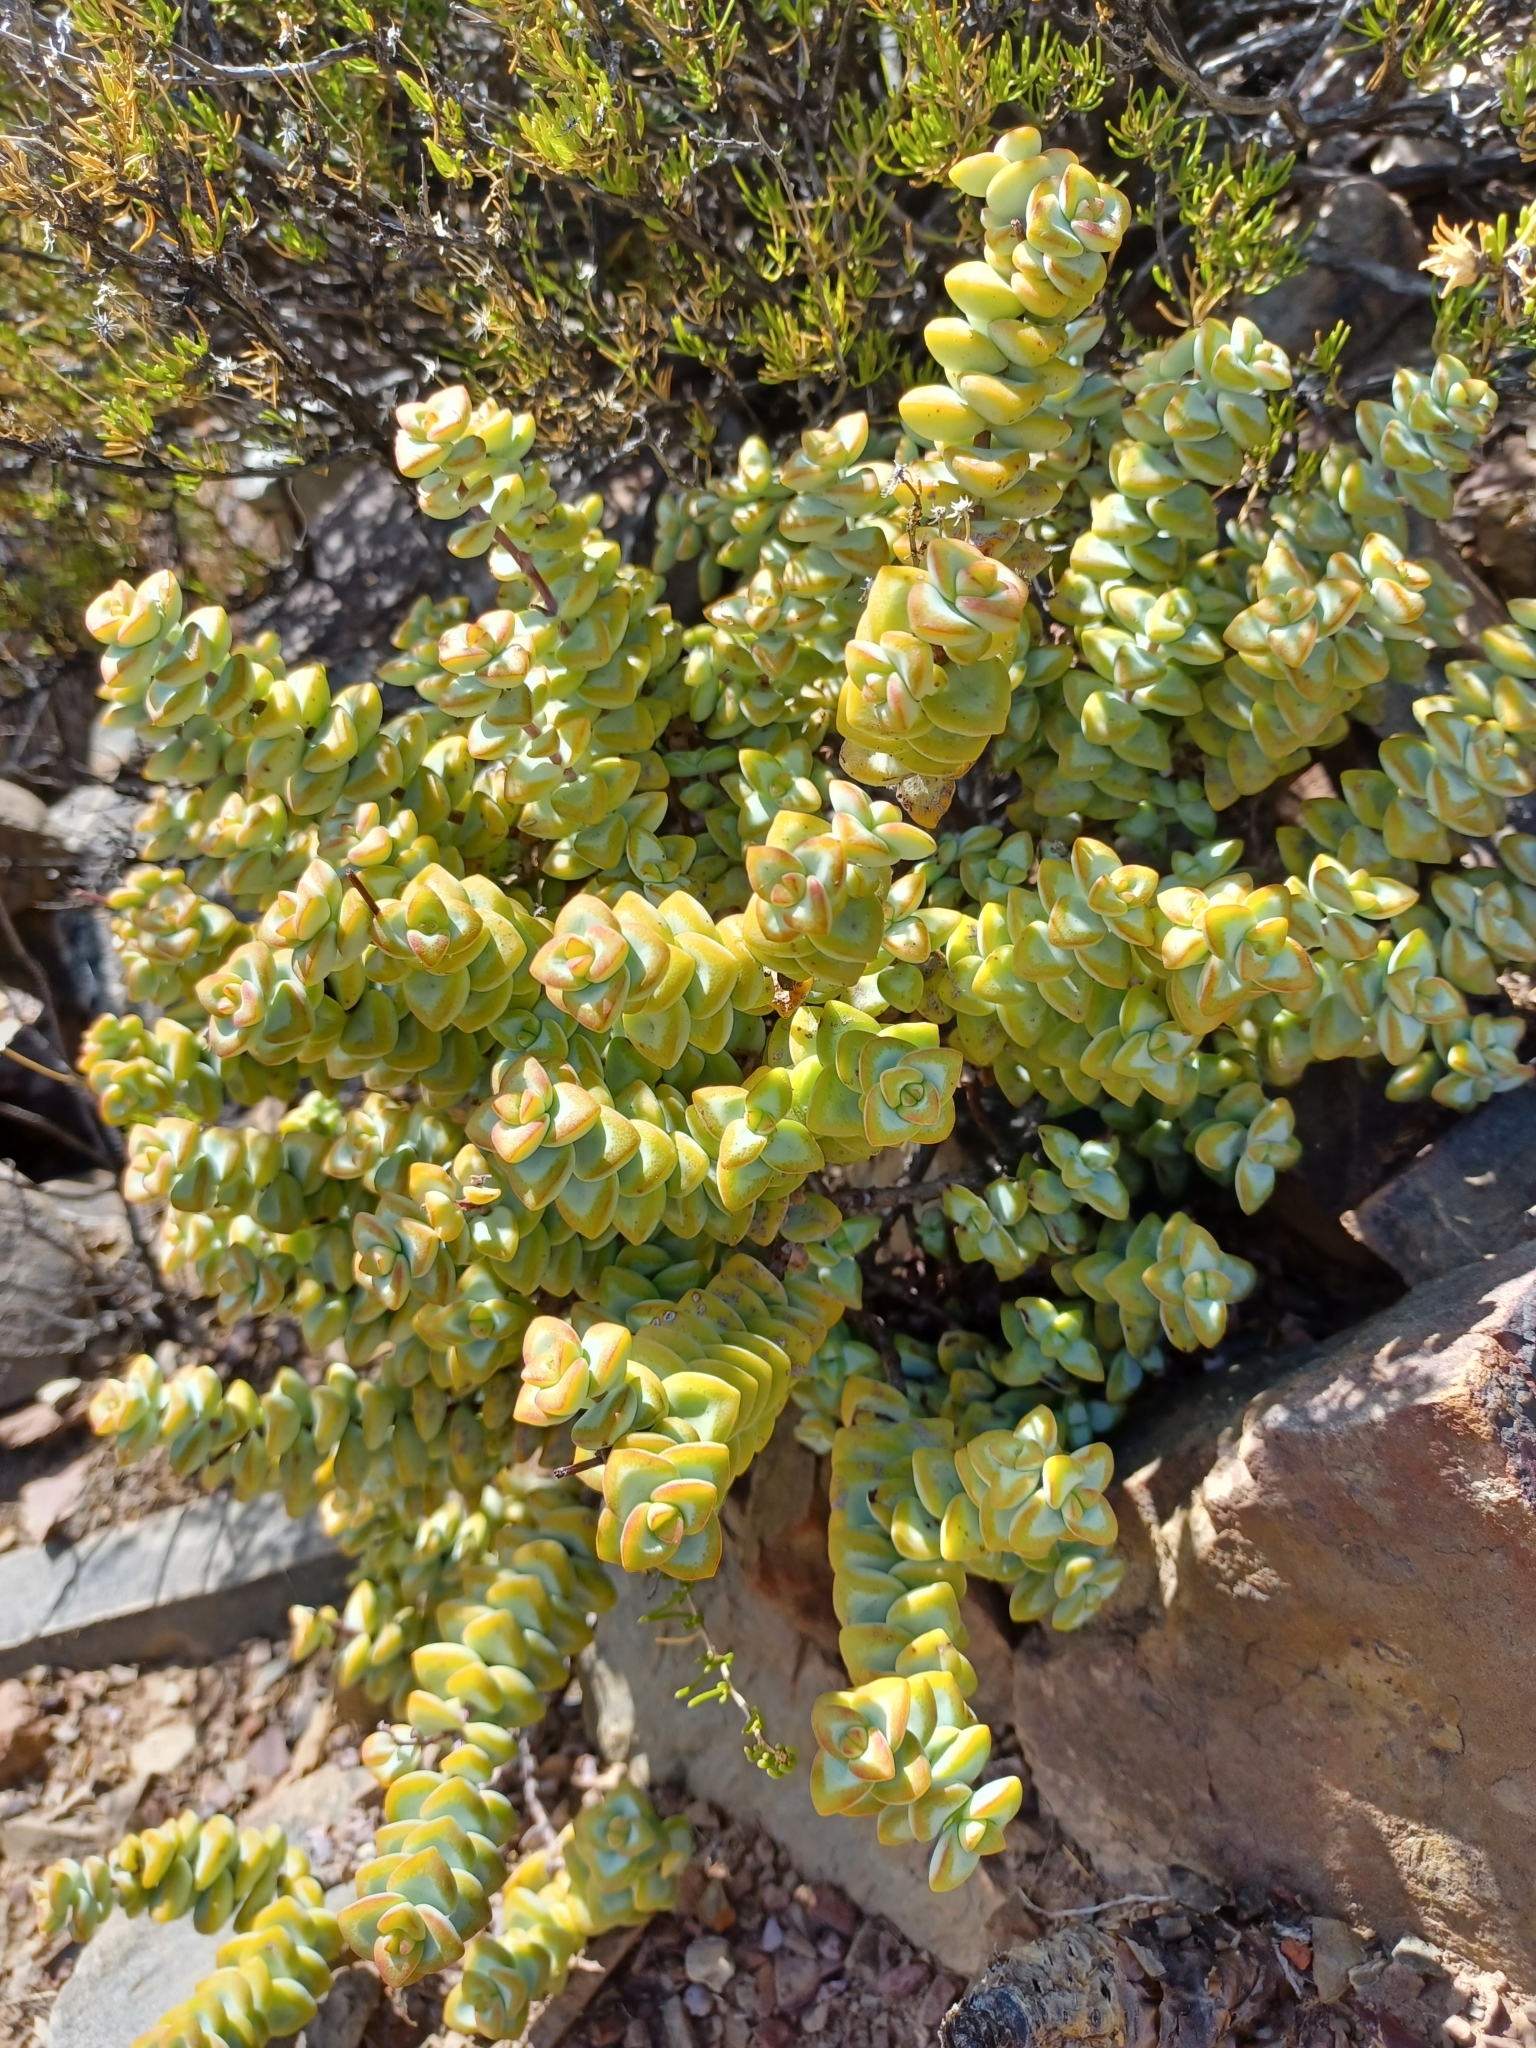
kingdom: Plantae
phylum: Tracheophyta
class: Magnoliopsida
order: Saxifragales
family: Crassulaceae
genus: Crassula
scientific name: Crassula rupestris
